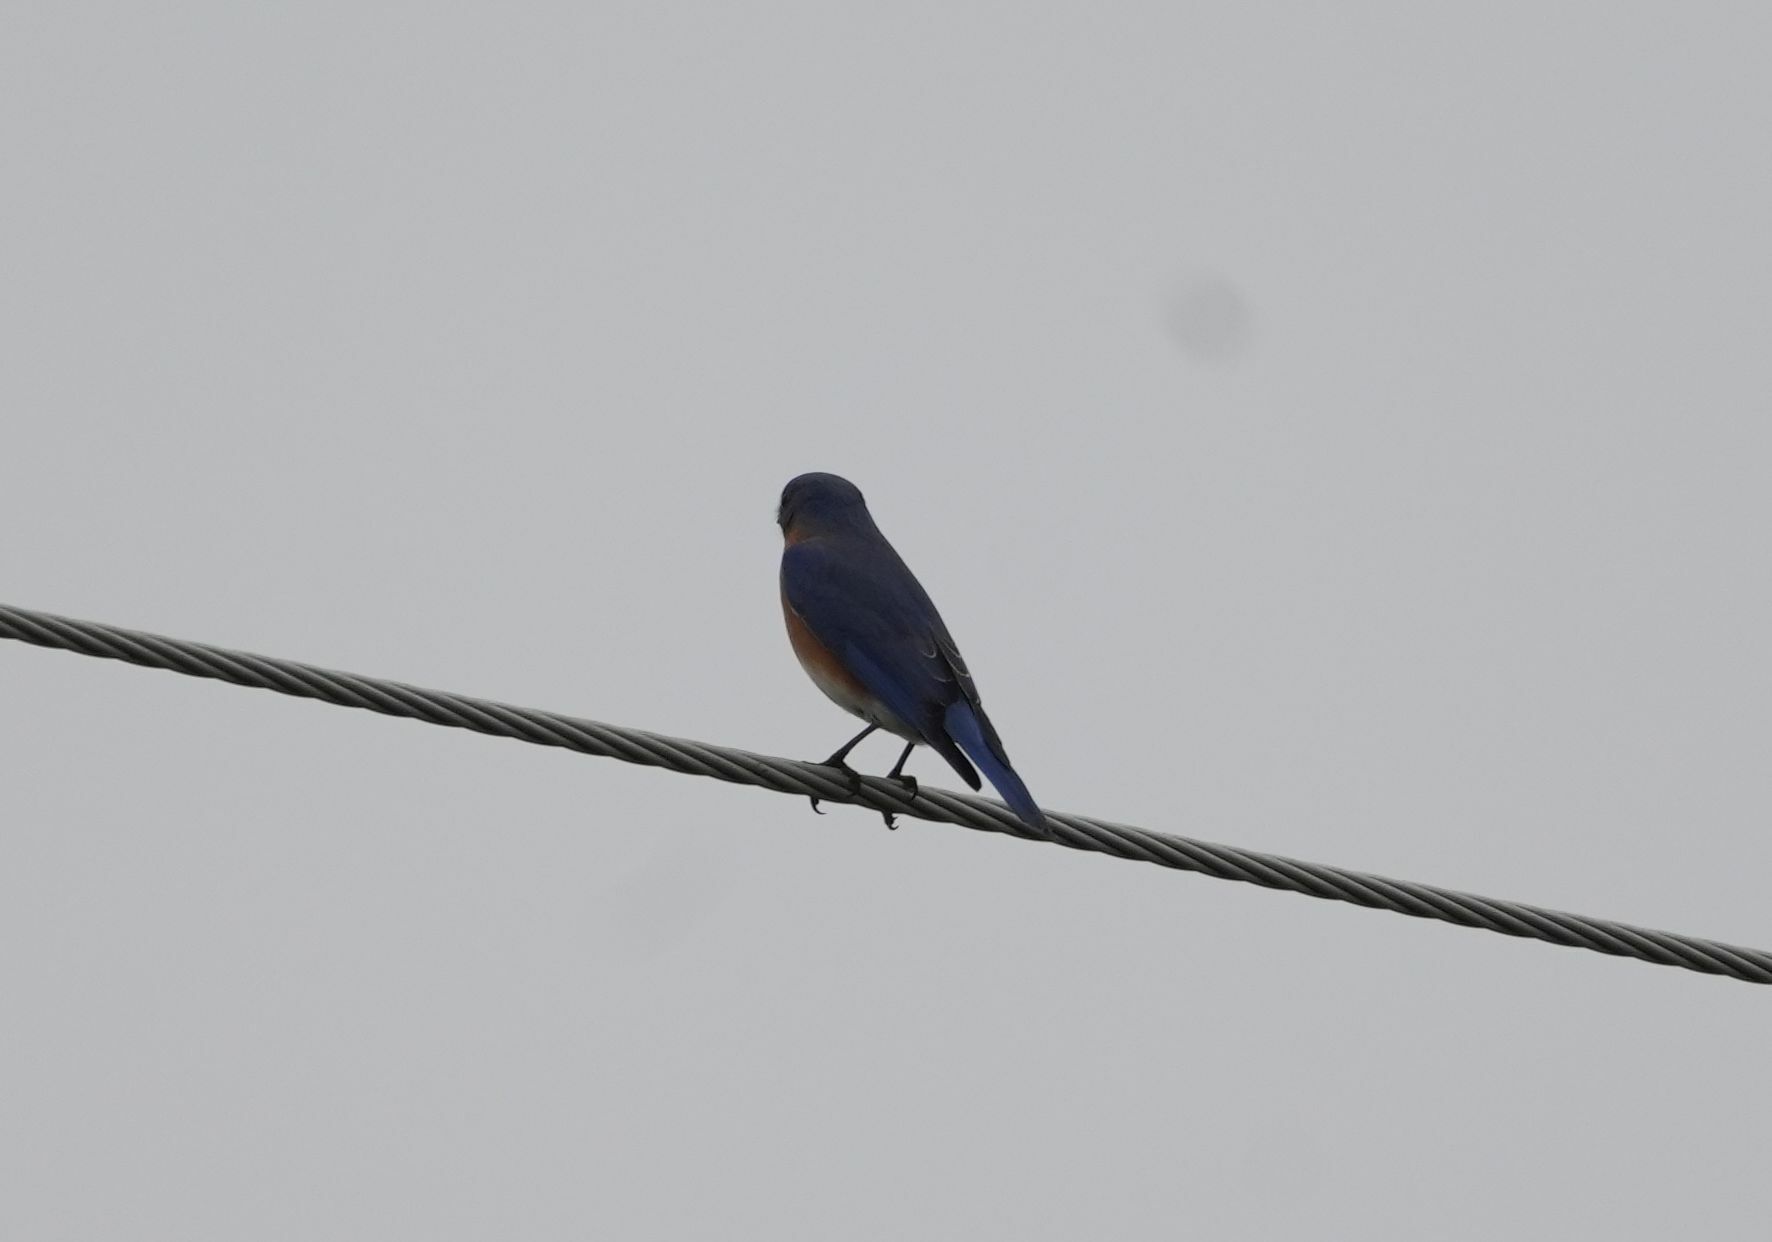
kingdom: Animalia
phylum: Chordata
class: Aves
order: Passeriformes
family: Turdidae
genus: Sialia
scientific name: Sialia sialis
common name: Eastern bluebird
